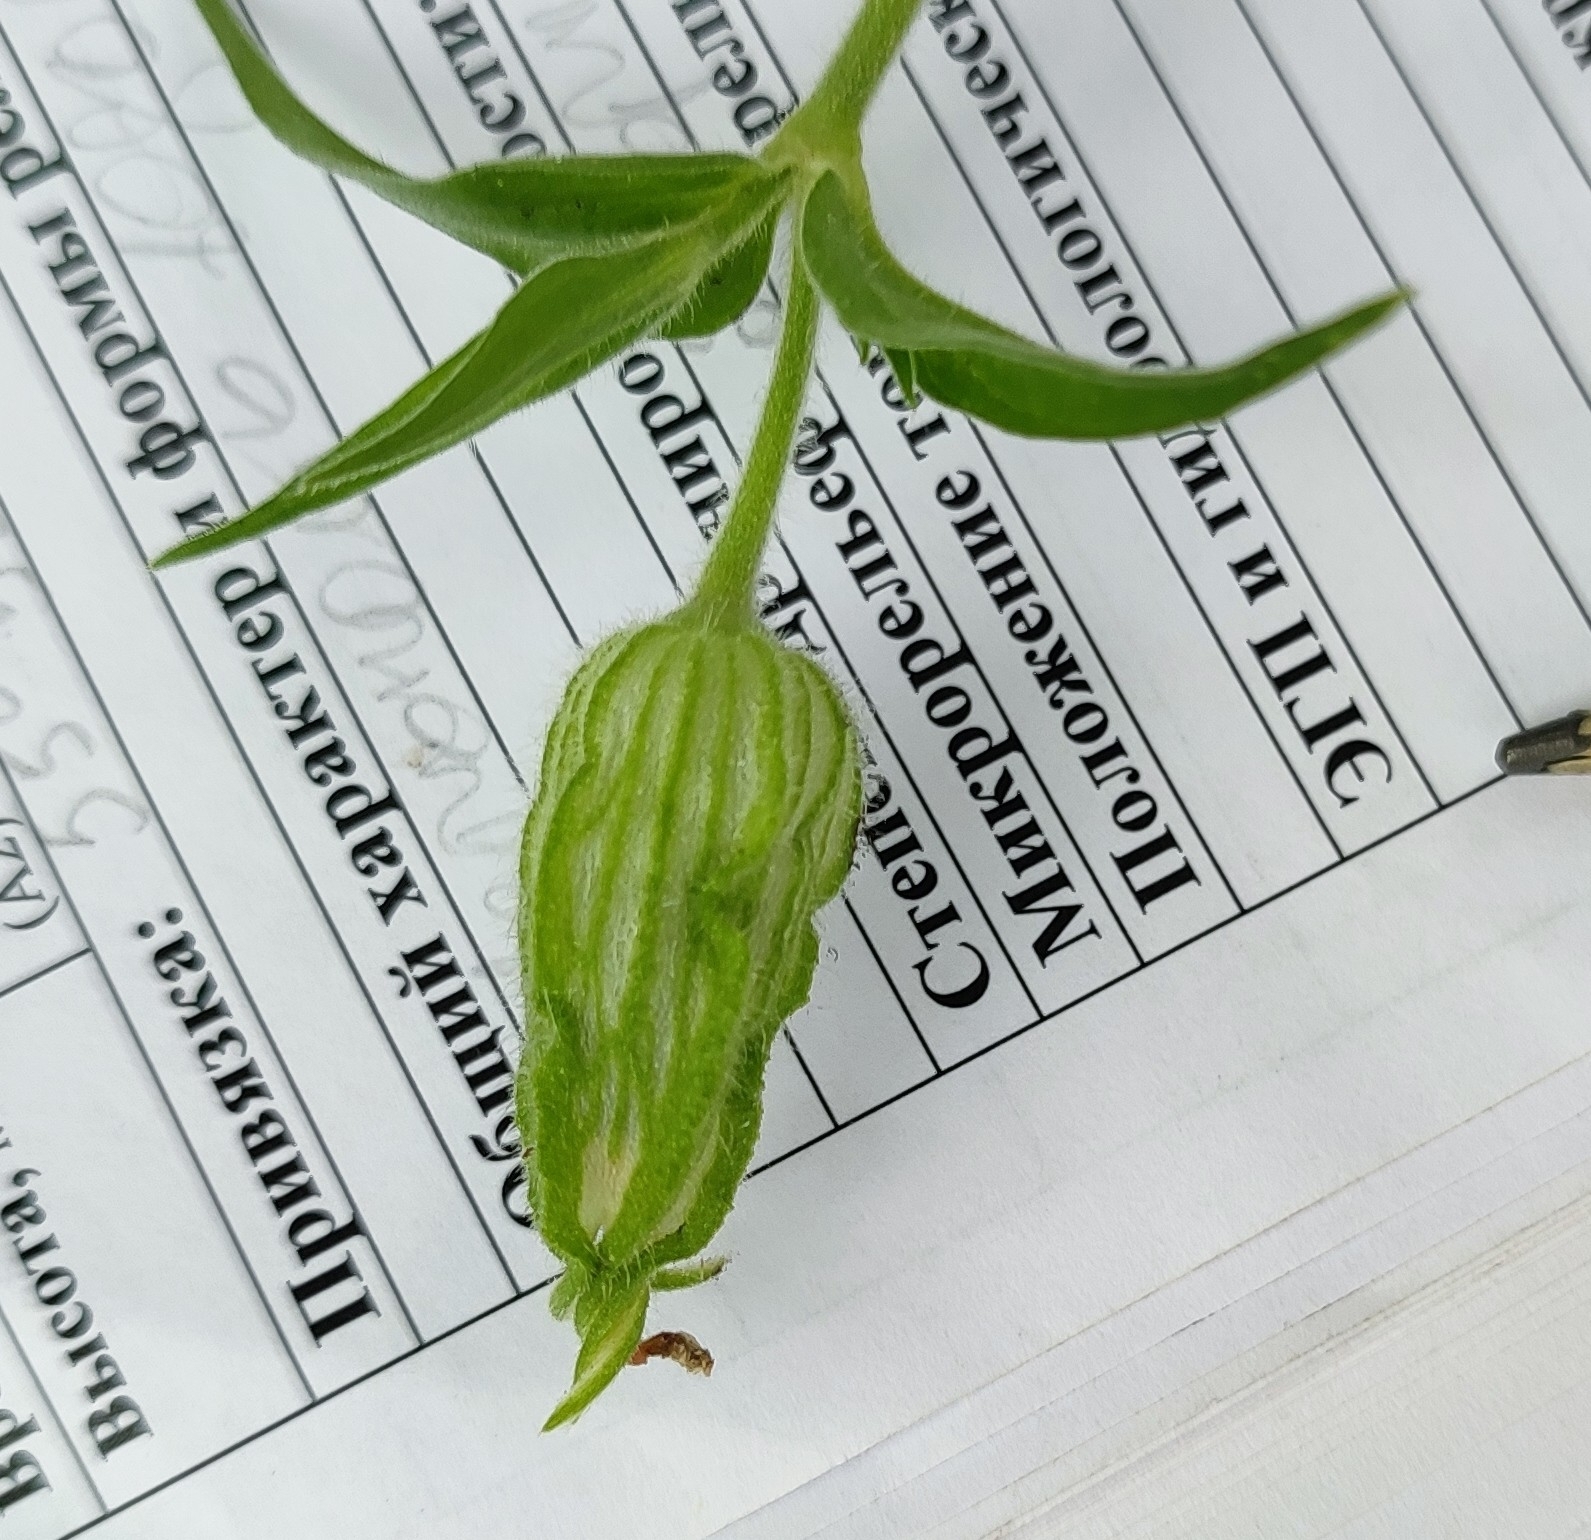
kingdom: Plantae
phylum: Tracheophyta
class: Magnoliopsida
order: Caryophyllales
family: Caryophyllaceae
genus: Silene
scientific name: Silene latifolia
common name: White campion
